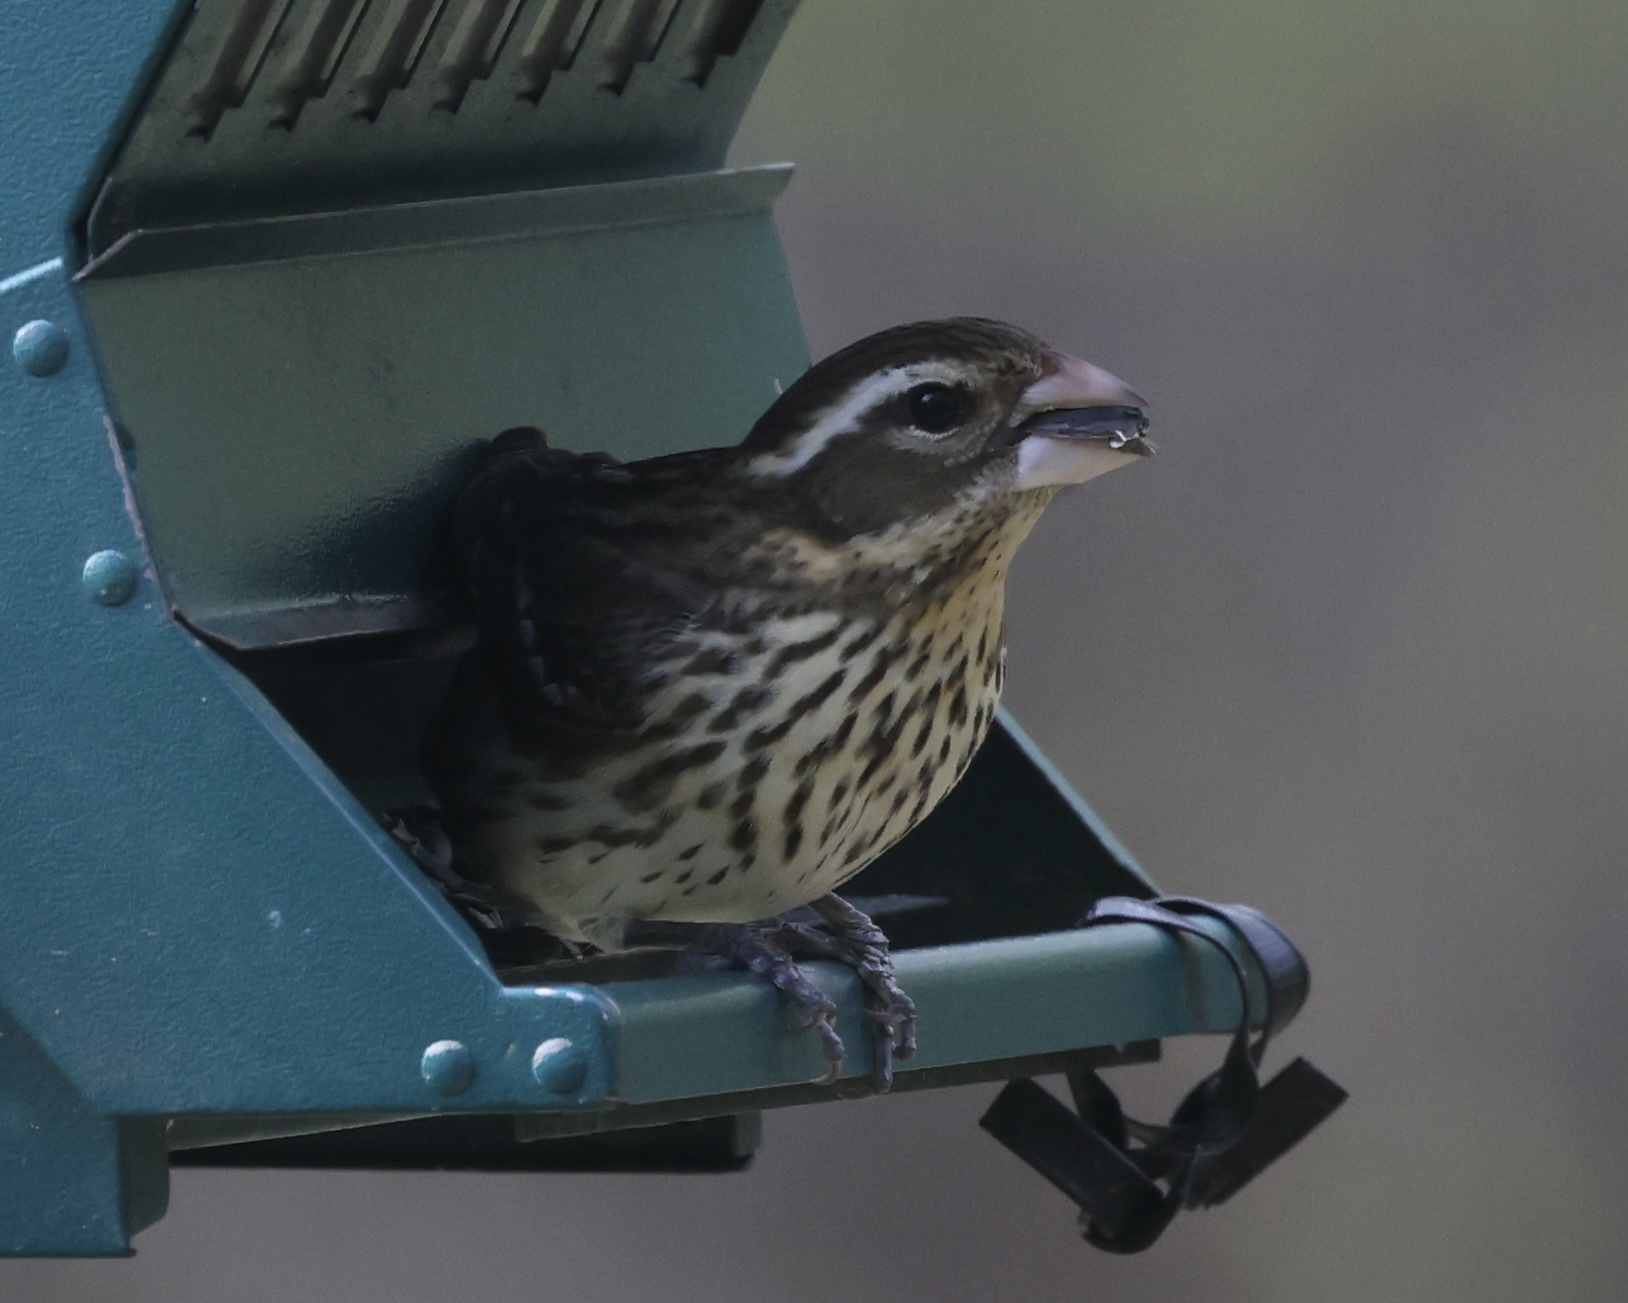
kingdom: Animalia
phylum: Chordata
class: Aves
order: Passeriformes
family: Cardinalidae
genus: Pheucticus
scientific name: Pheucticus ludovicianus
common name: Rose-breasted grosbeak
